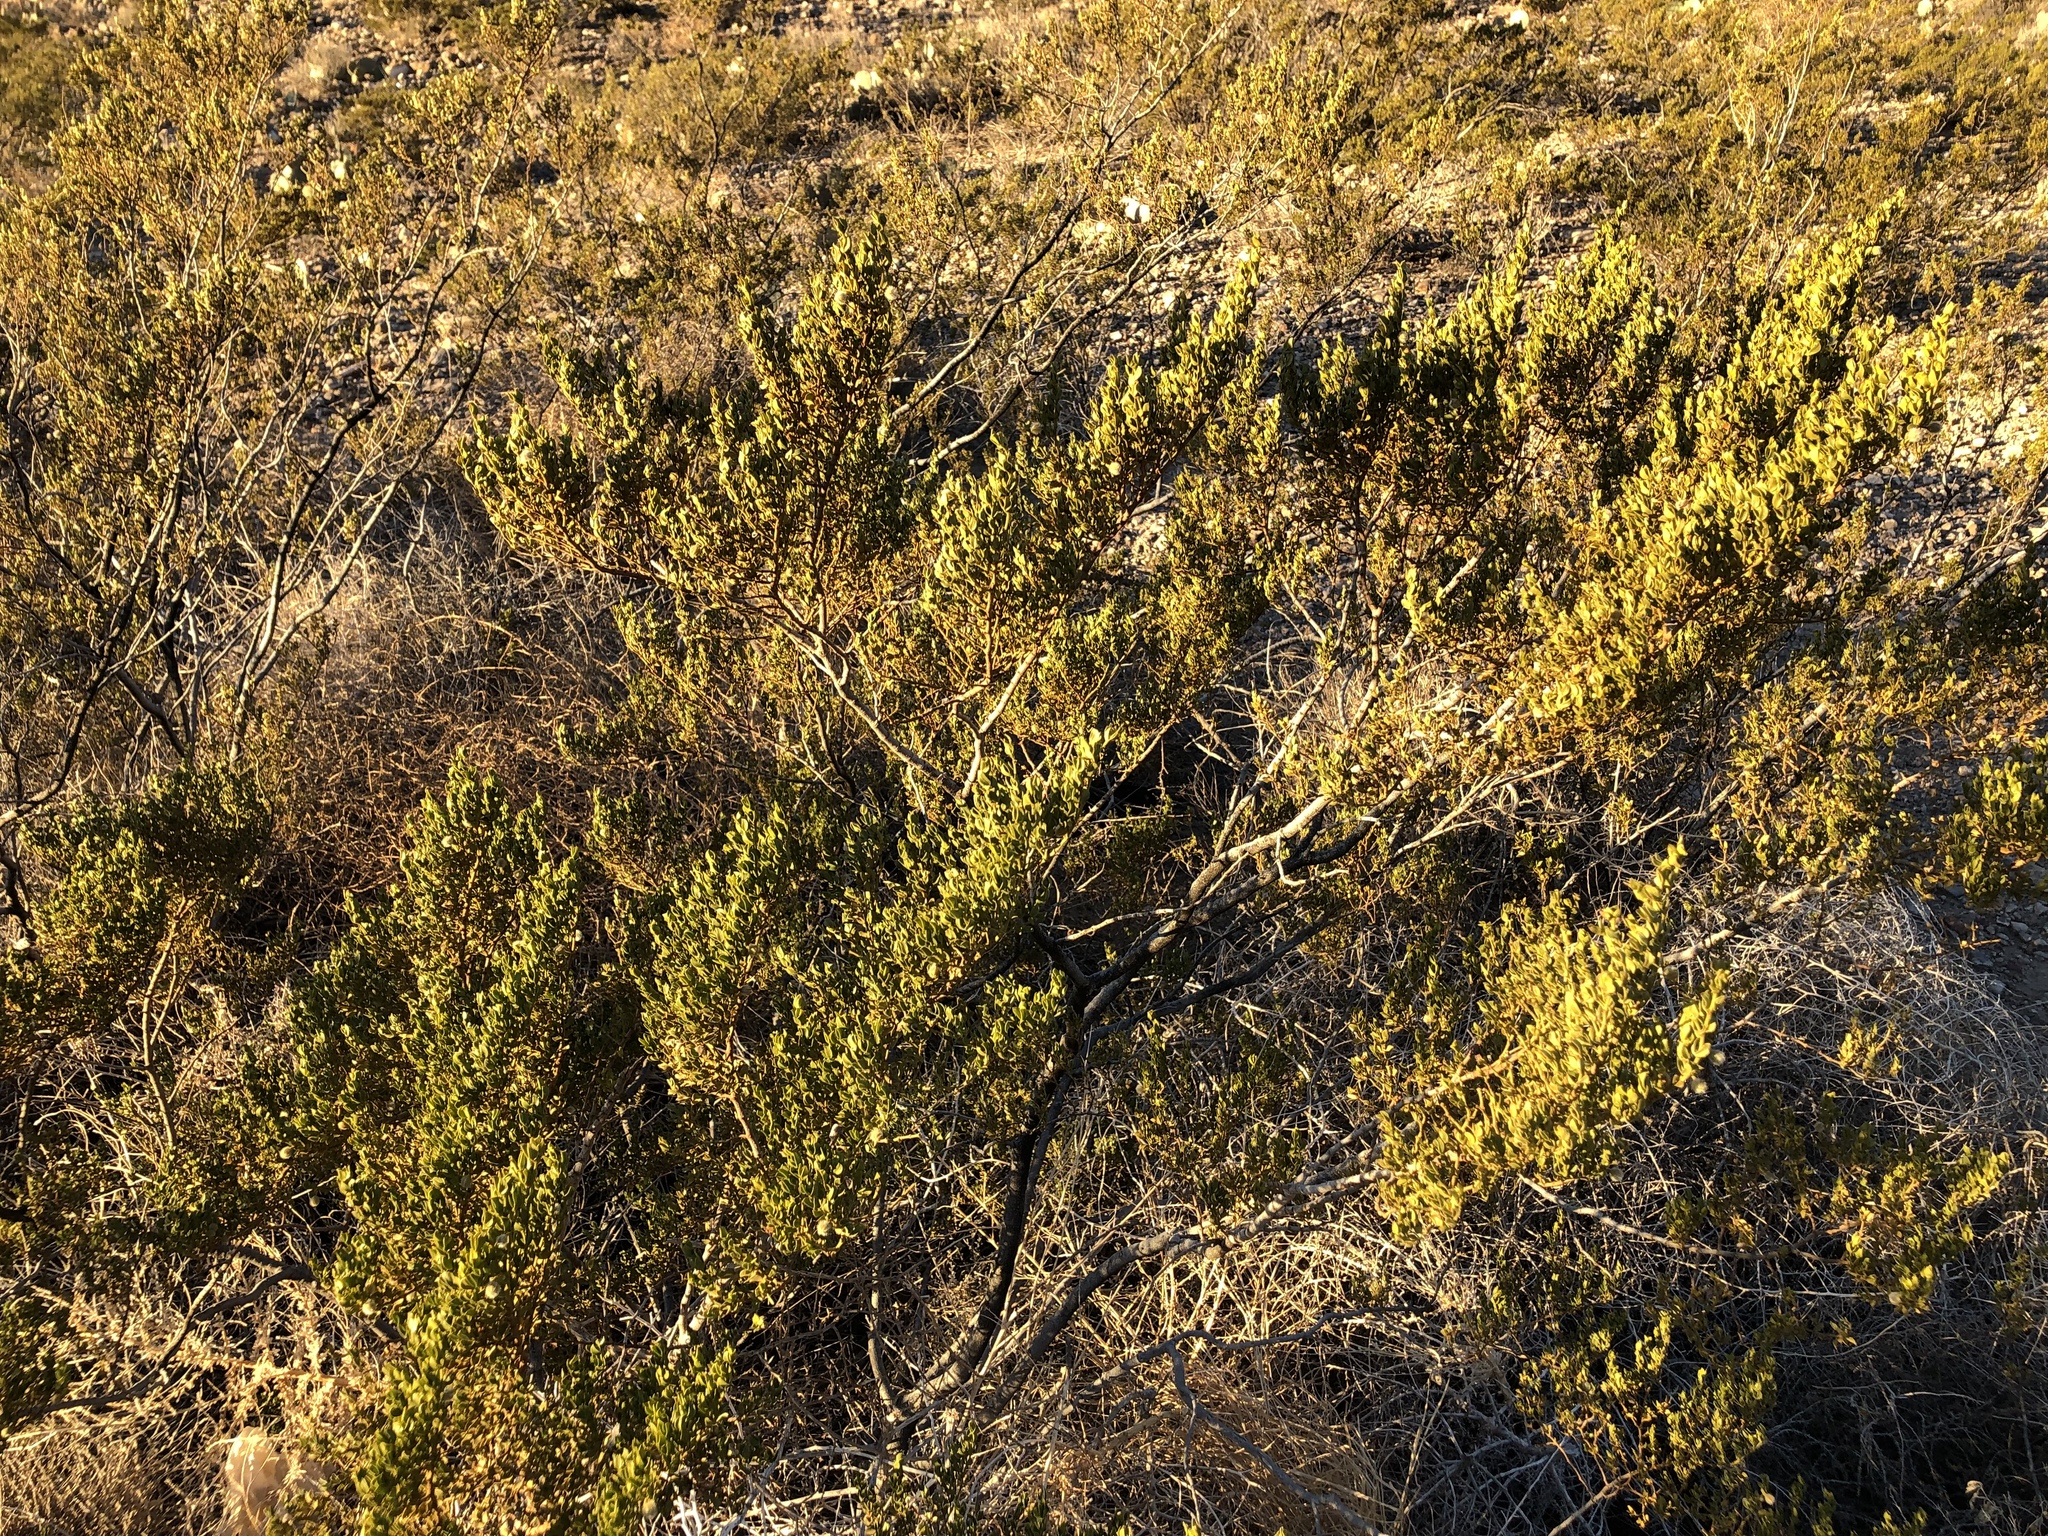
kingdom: Plantae
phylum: Tracheophyta
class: Magnoliopsida
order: Zygophyllales
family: Zygophyllaceae
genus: Larrea
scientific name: Larrea tridentata
